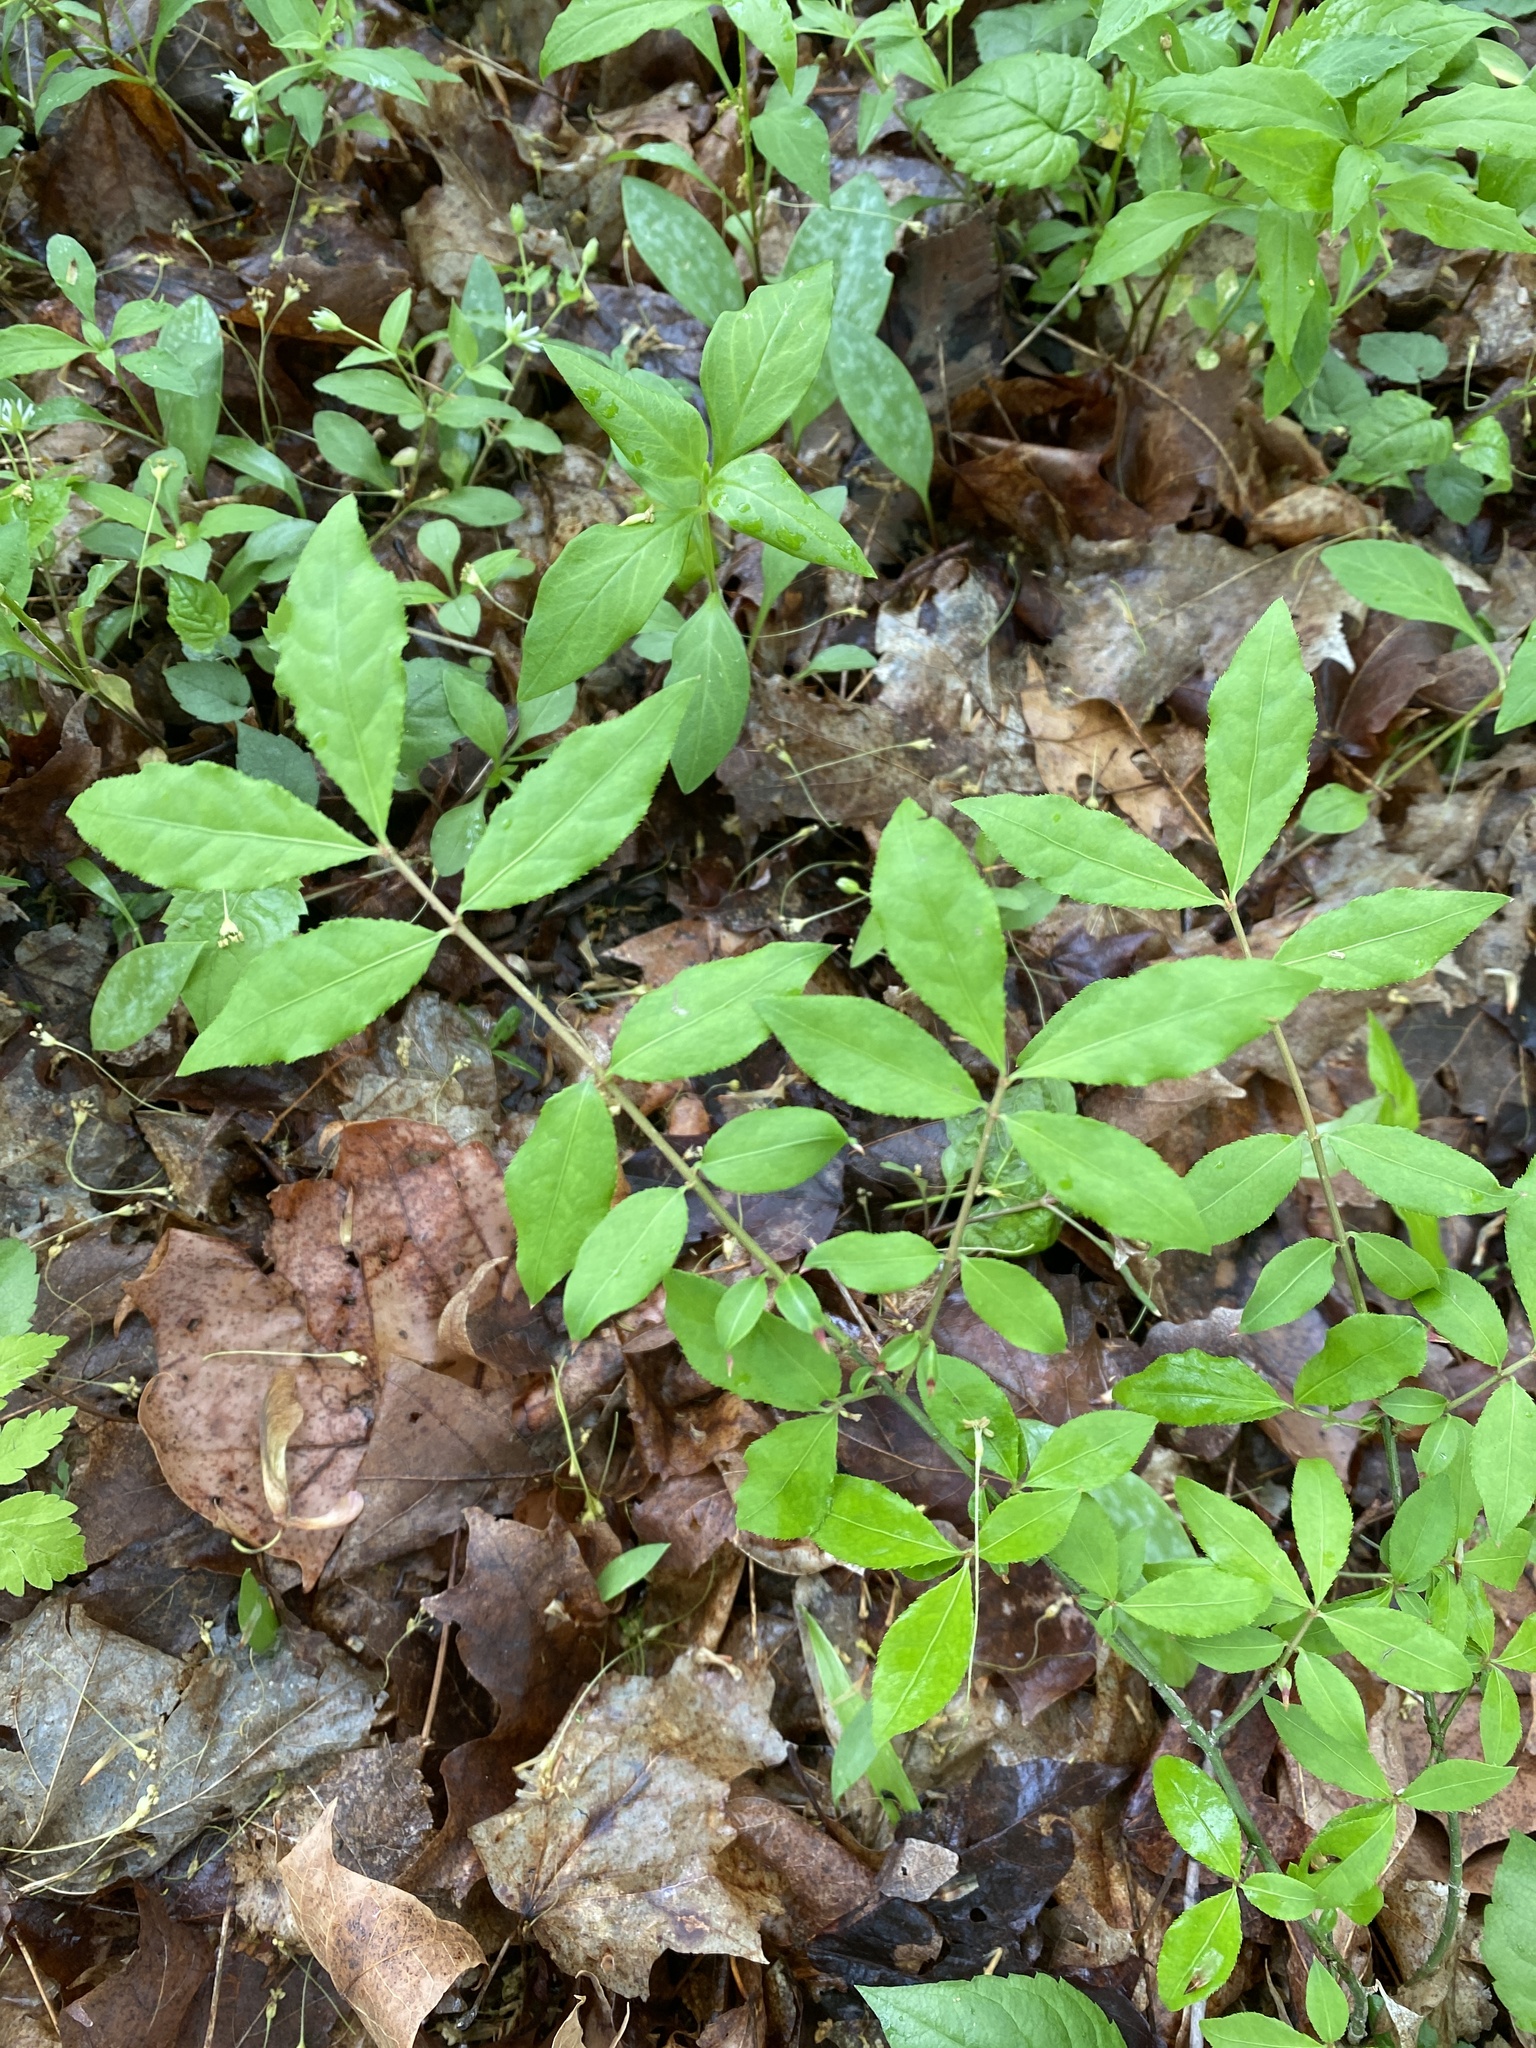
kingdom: Plantae
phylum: Tracheophyta
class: Magnoliopsida
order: Celastrales
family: Celastraceae
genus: Euonymus
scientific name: Euonymus alatus
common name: Winged euonymus
